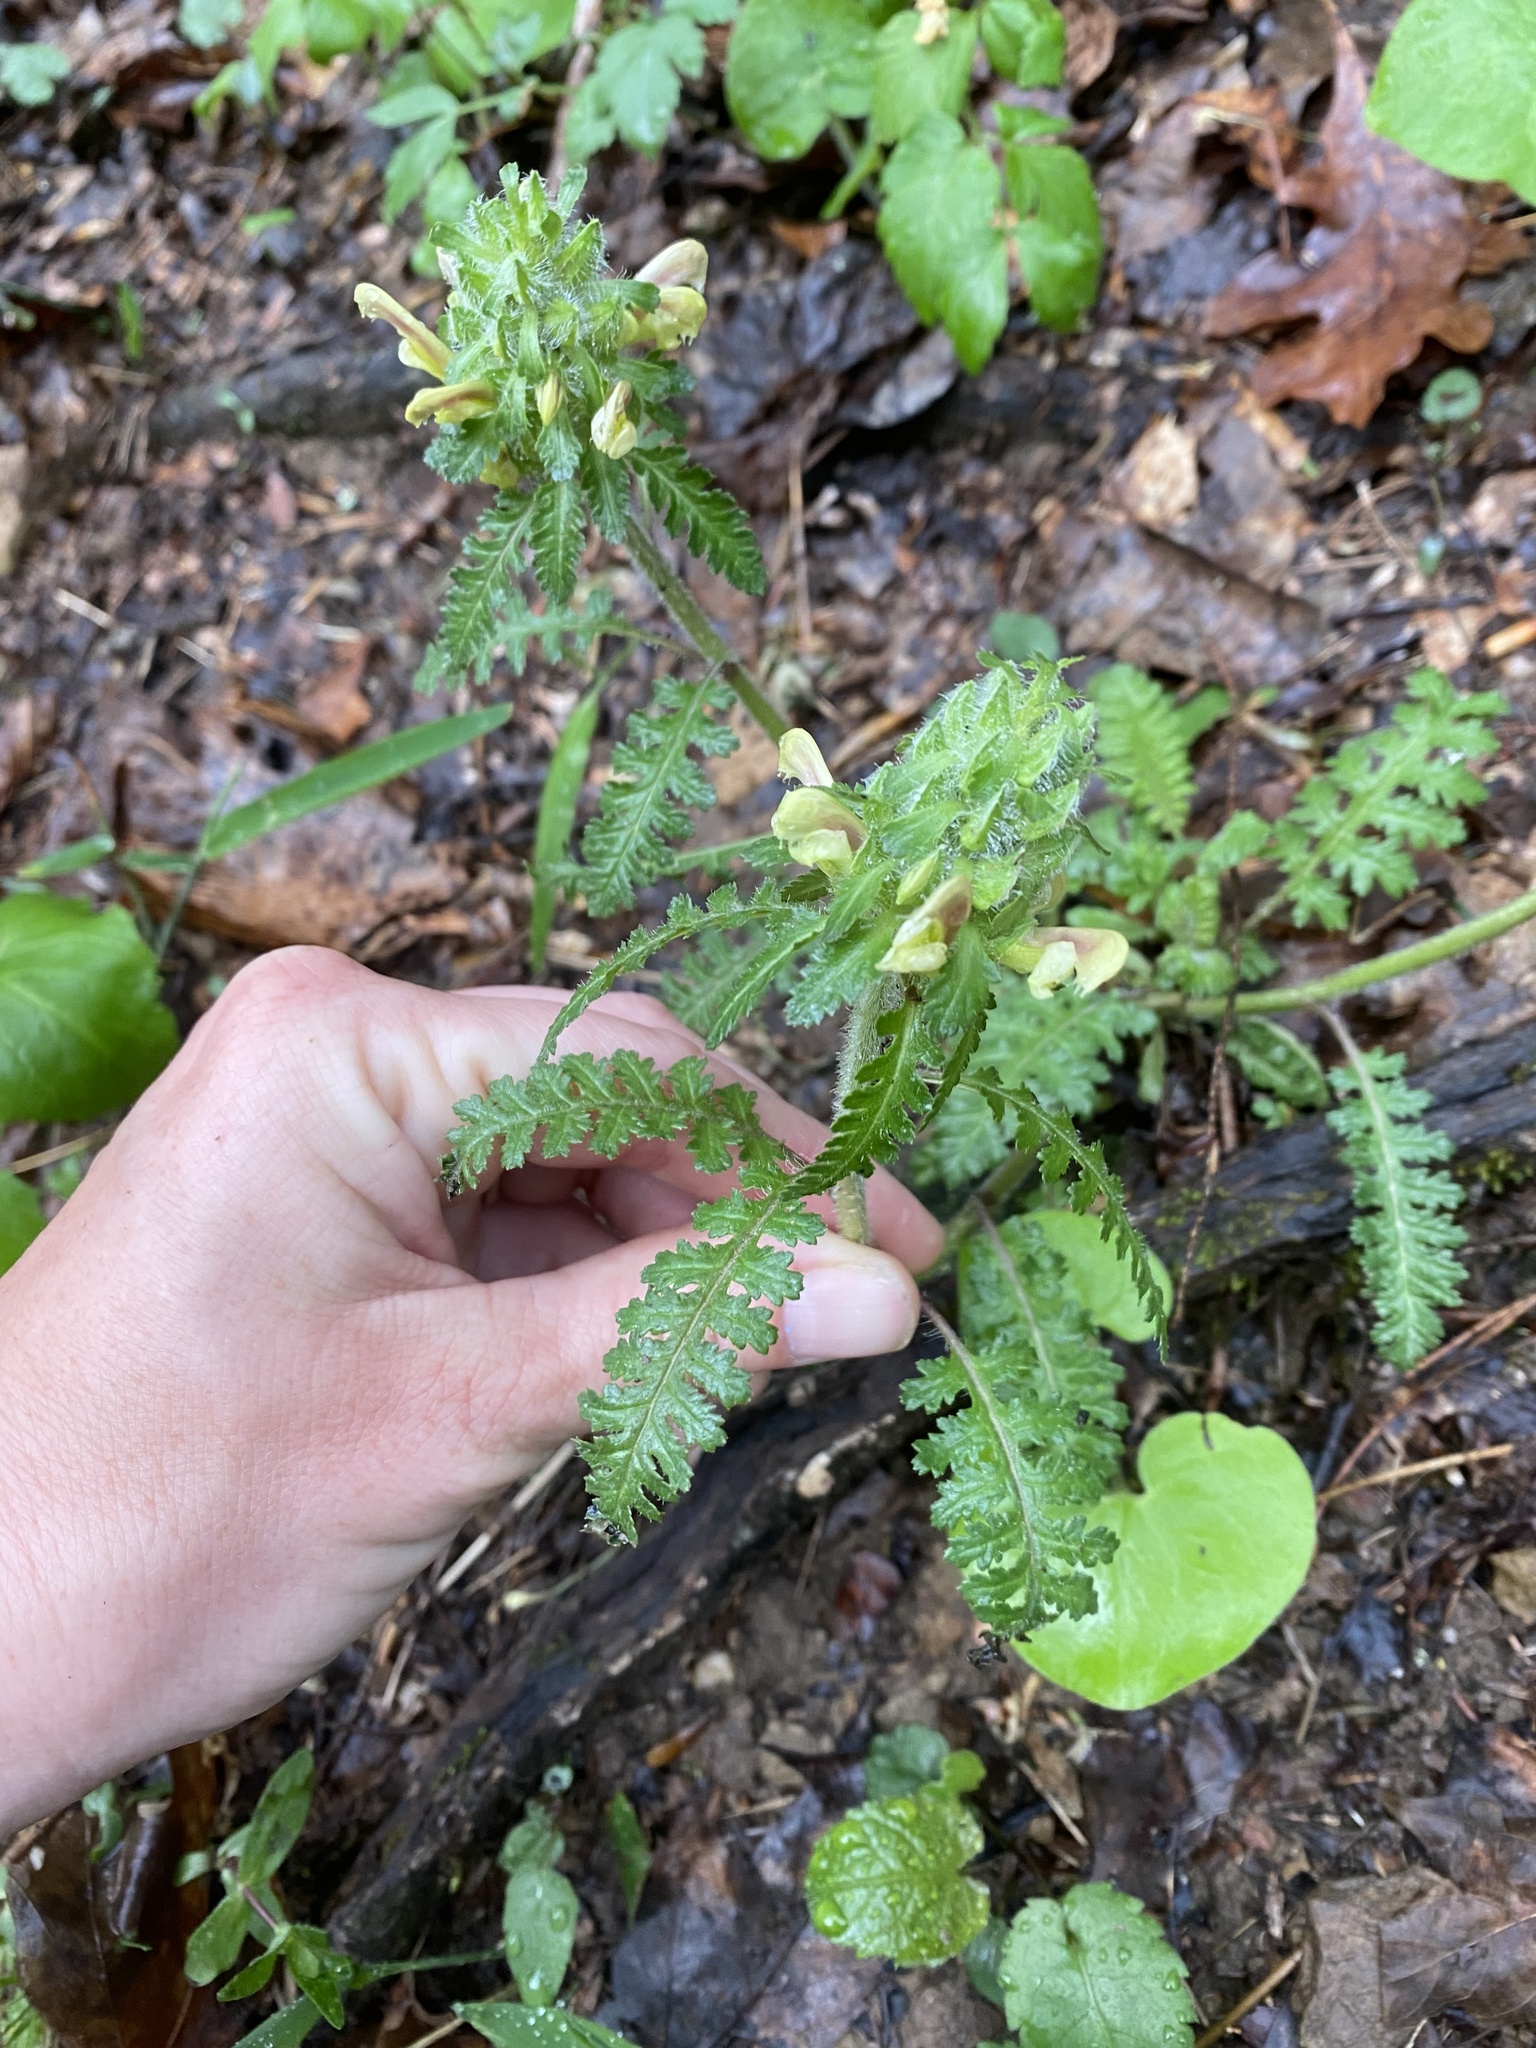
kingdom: Plantae
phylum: Tracheophyta
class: Magnoliopsida
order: Lamiales
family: Orobanchaceae
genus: Pedicularis
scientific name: Pedicularis canadensis
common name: Early lousewort
